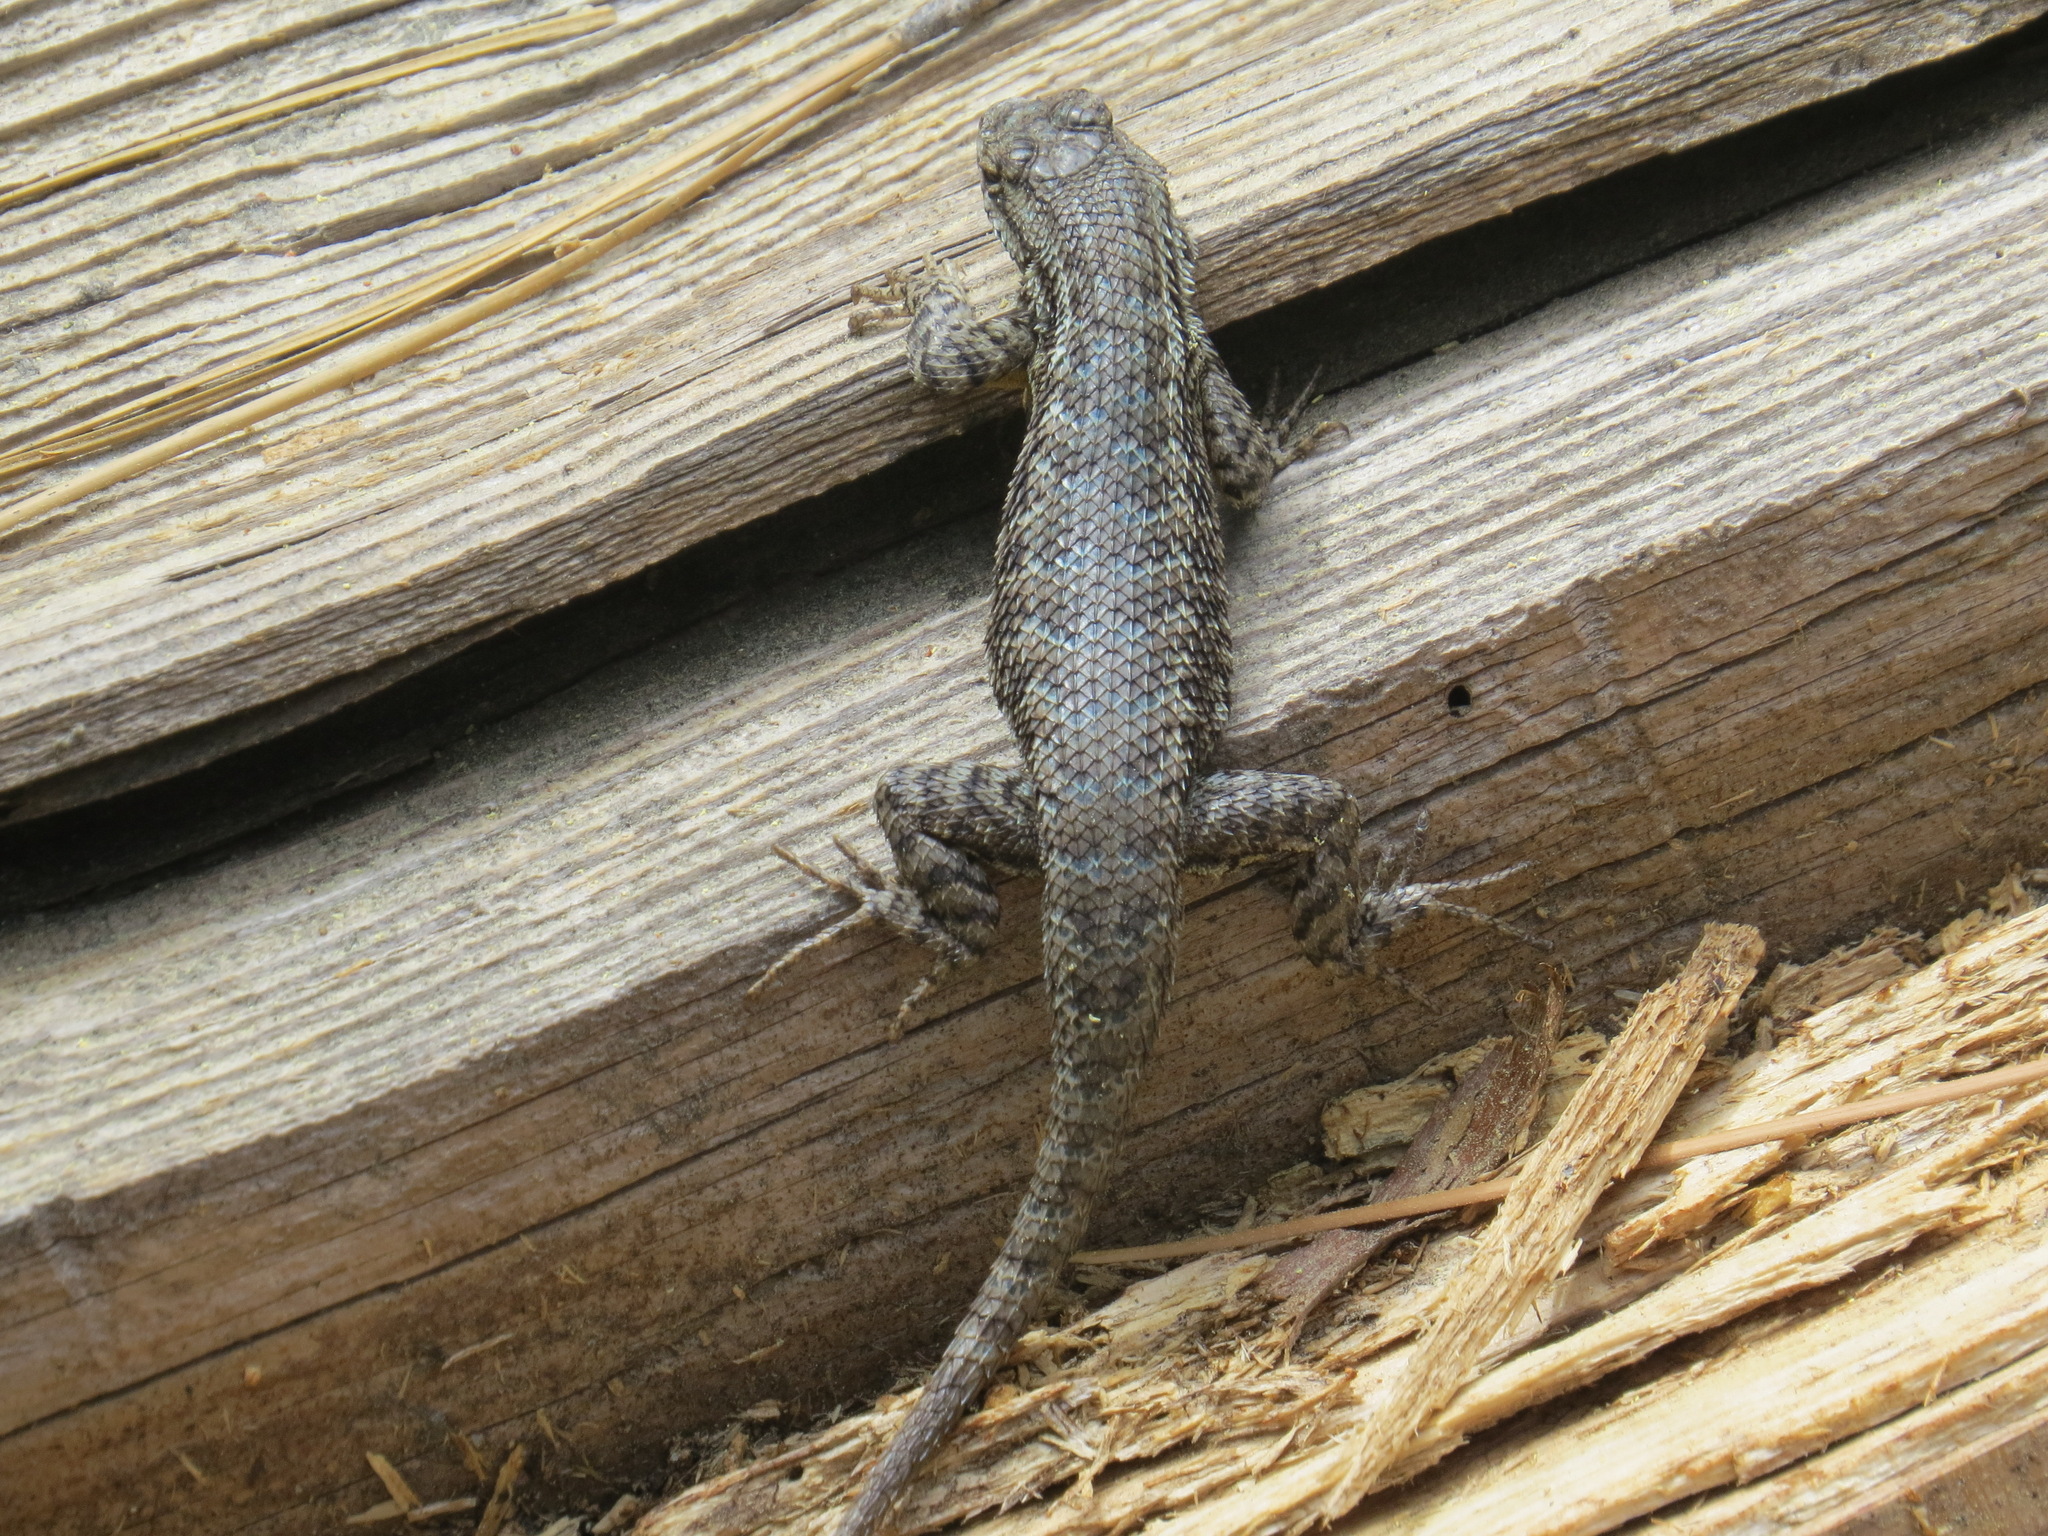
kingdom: Animalia
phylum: Chordata
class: Squamata
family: Phrynosomatidae
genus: Sceloporus
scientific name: Sceloporus occidentalis
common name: Western fence lizard
